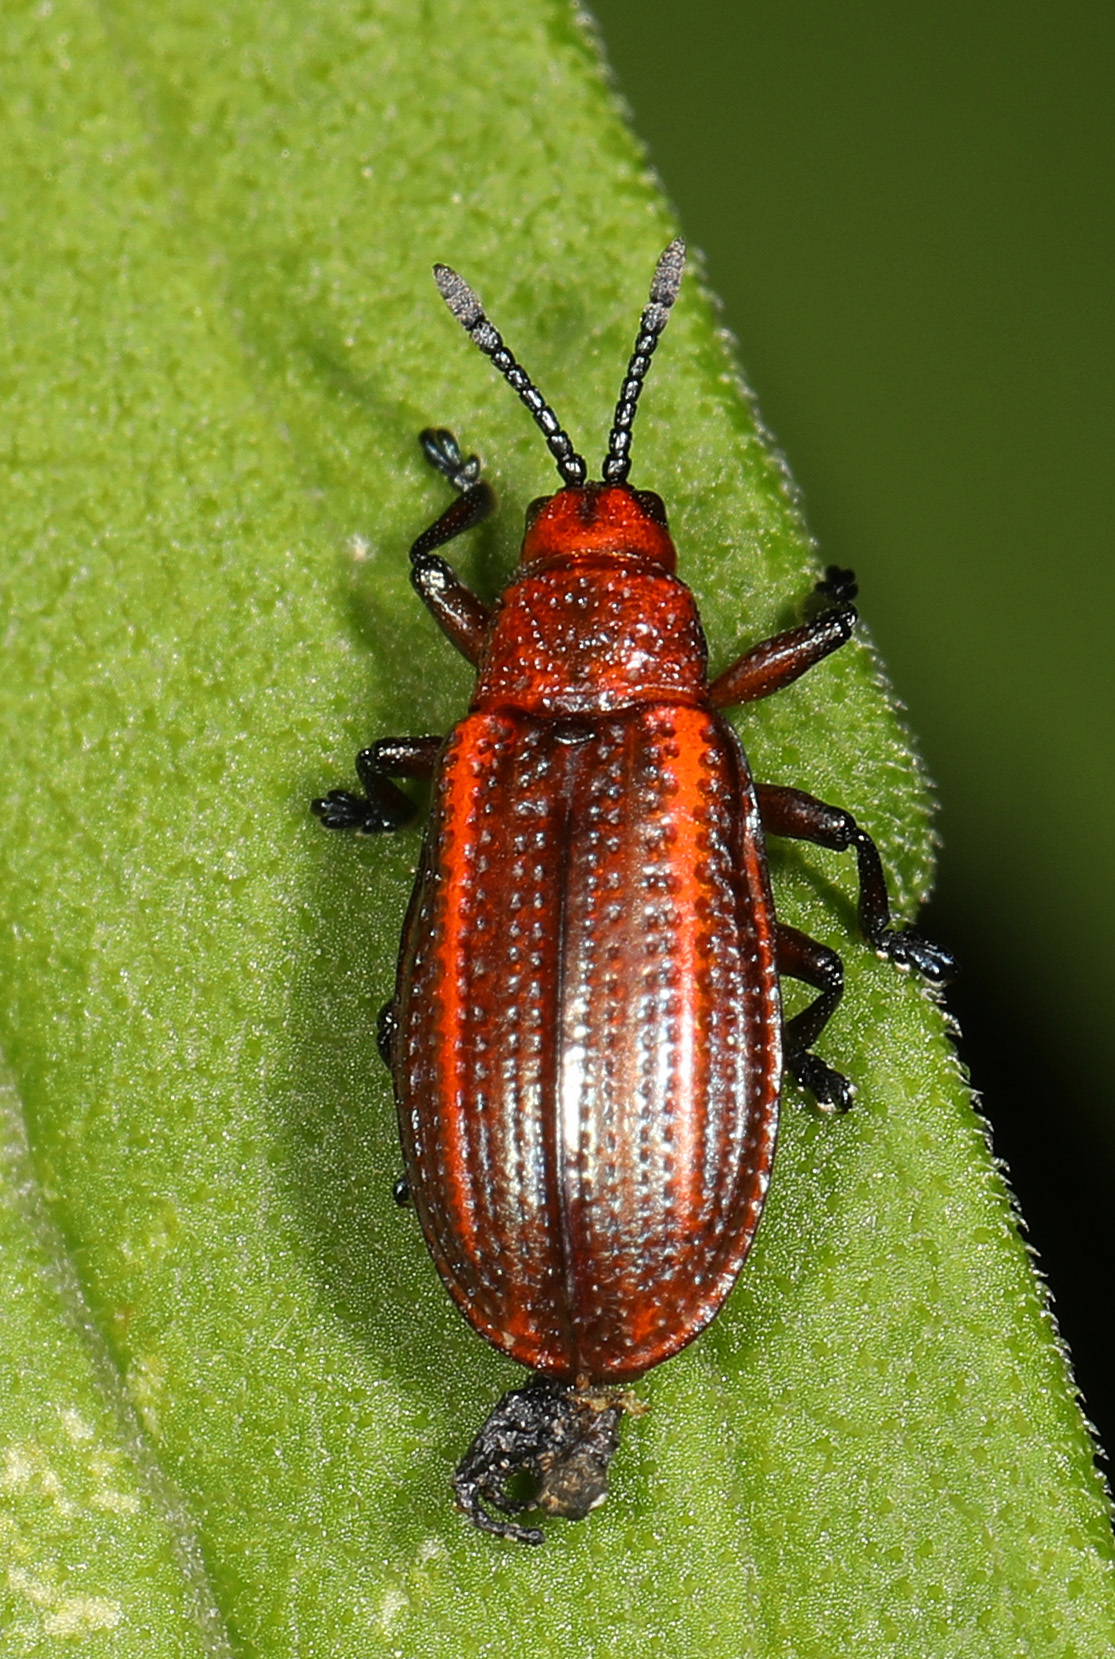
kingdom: Animalia
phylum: Arthropoda
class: Insecta
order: Coleoptera
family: Chrysomelidae
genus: Microrhopala
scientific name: Microrhopala vittata
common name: Goldenrod leaf miner beetle
